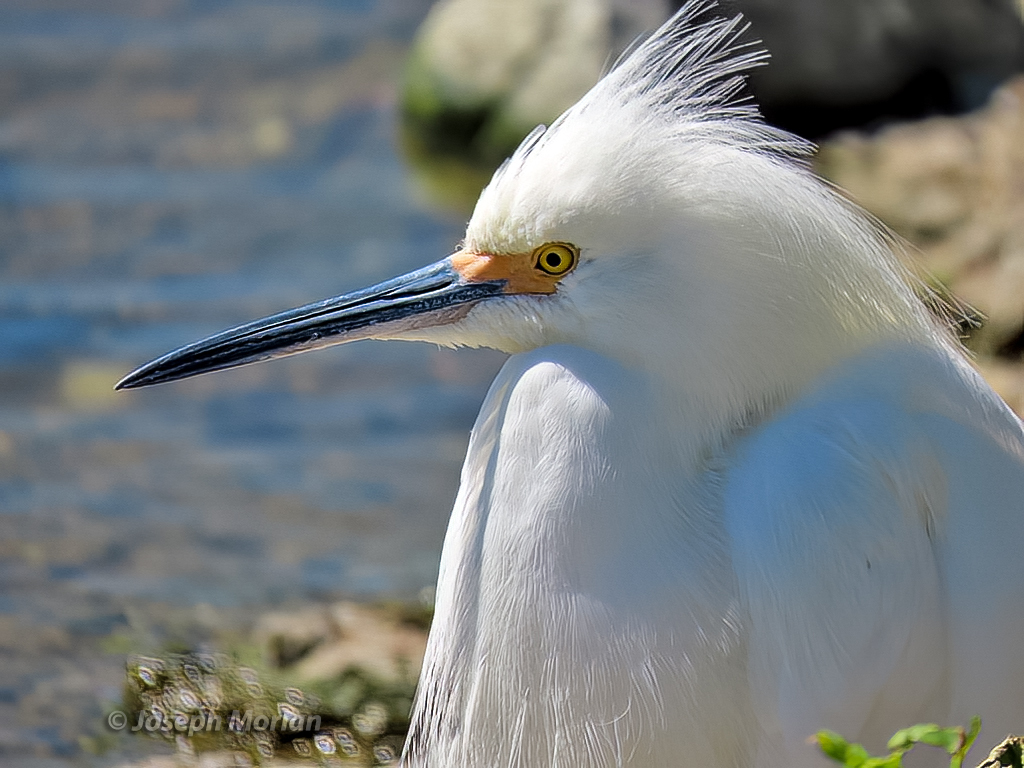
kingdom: Animalia
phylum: Chordata
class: Aves
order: Pelecaniformes
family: Ardeidae
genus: Egretta
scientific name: Egretta thula
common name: Snowy egret
